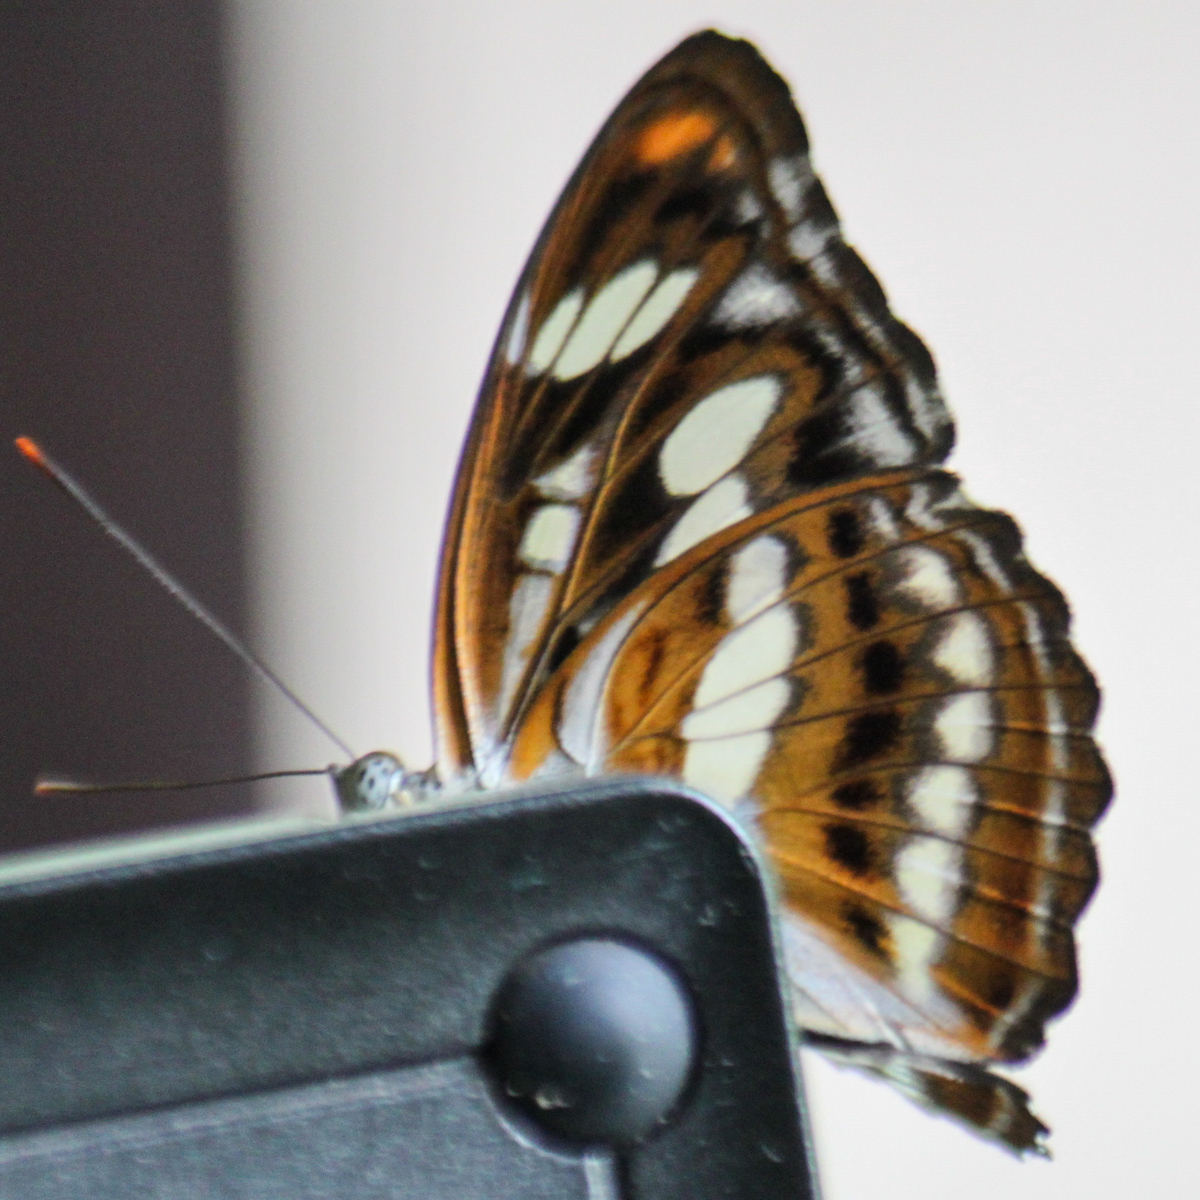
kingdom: Animalia
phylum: Arthropoda
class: Insecta
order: Lepidoptera
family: Nymphalidae
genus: Parathyma
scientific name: Parathyma nefte
